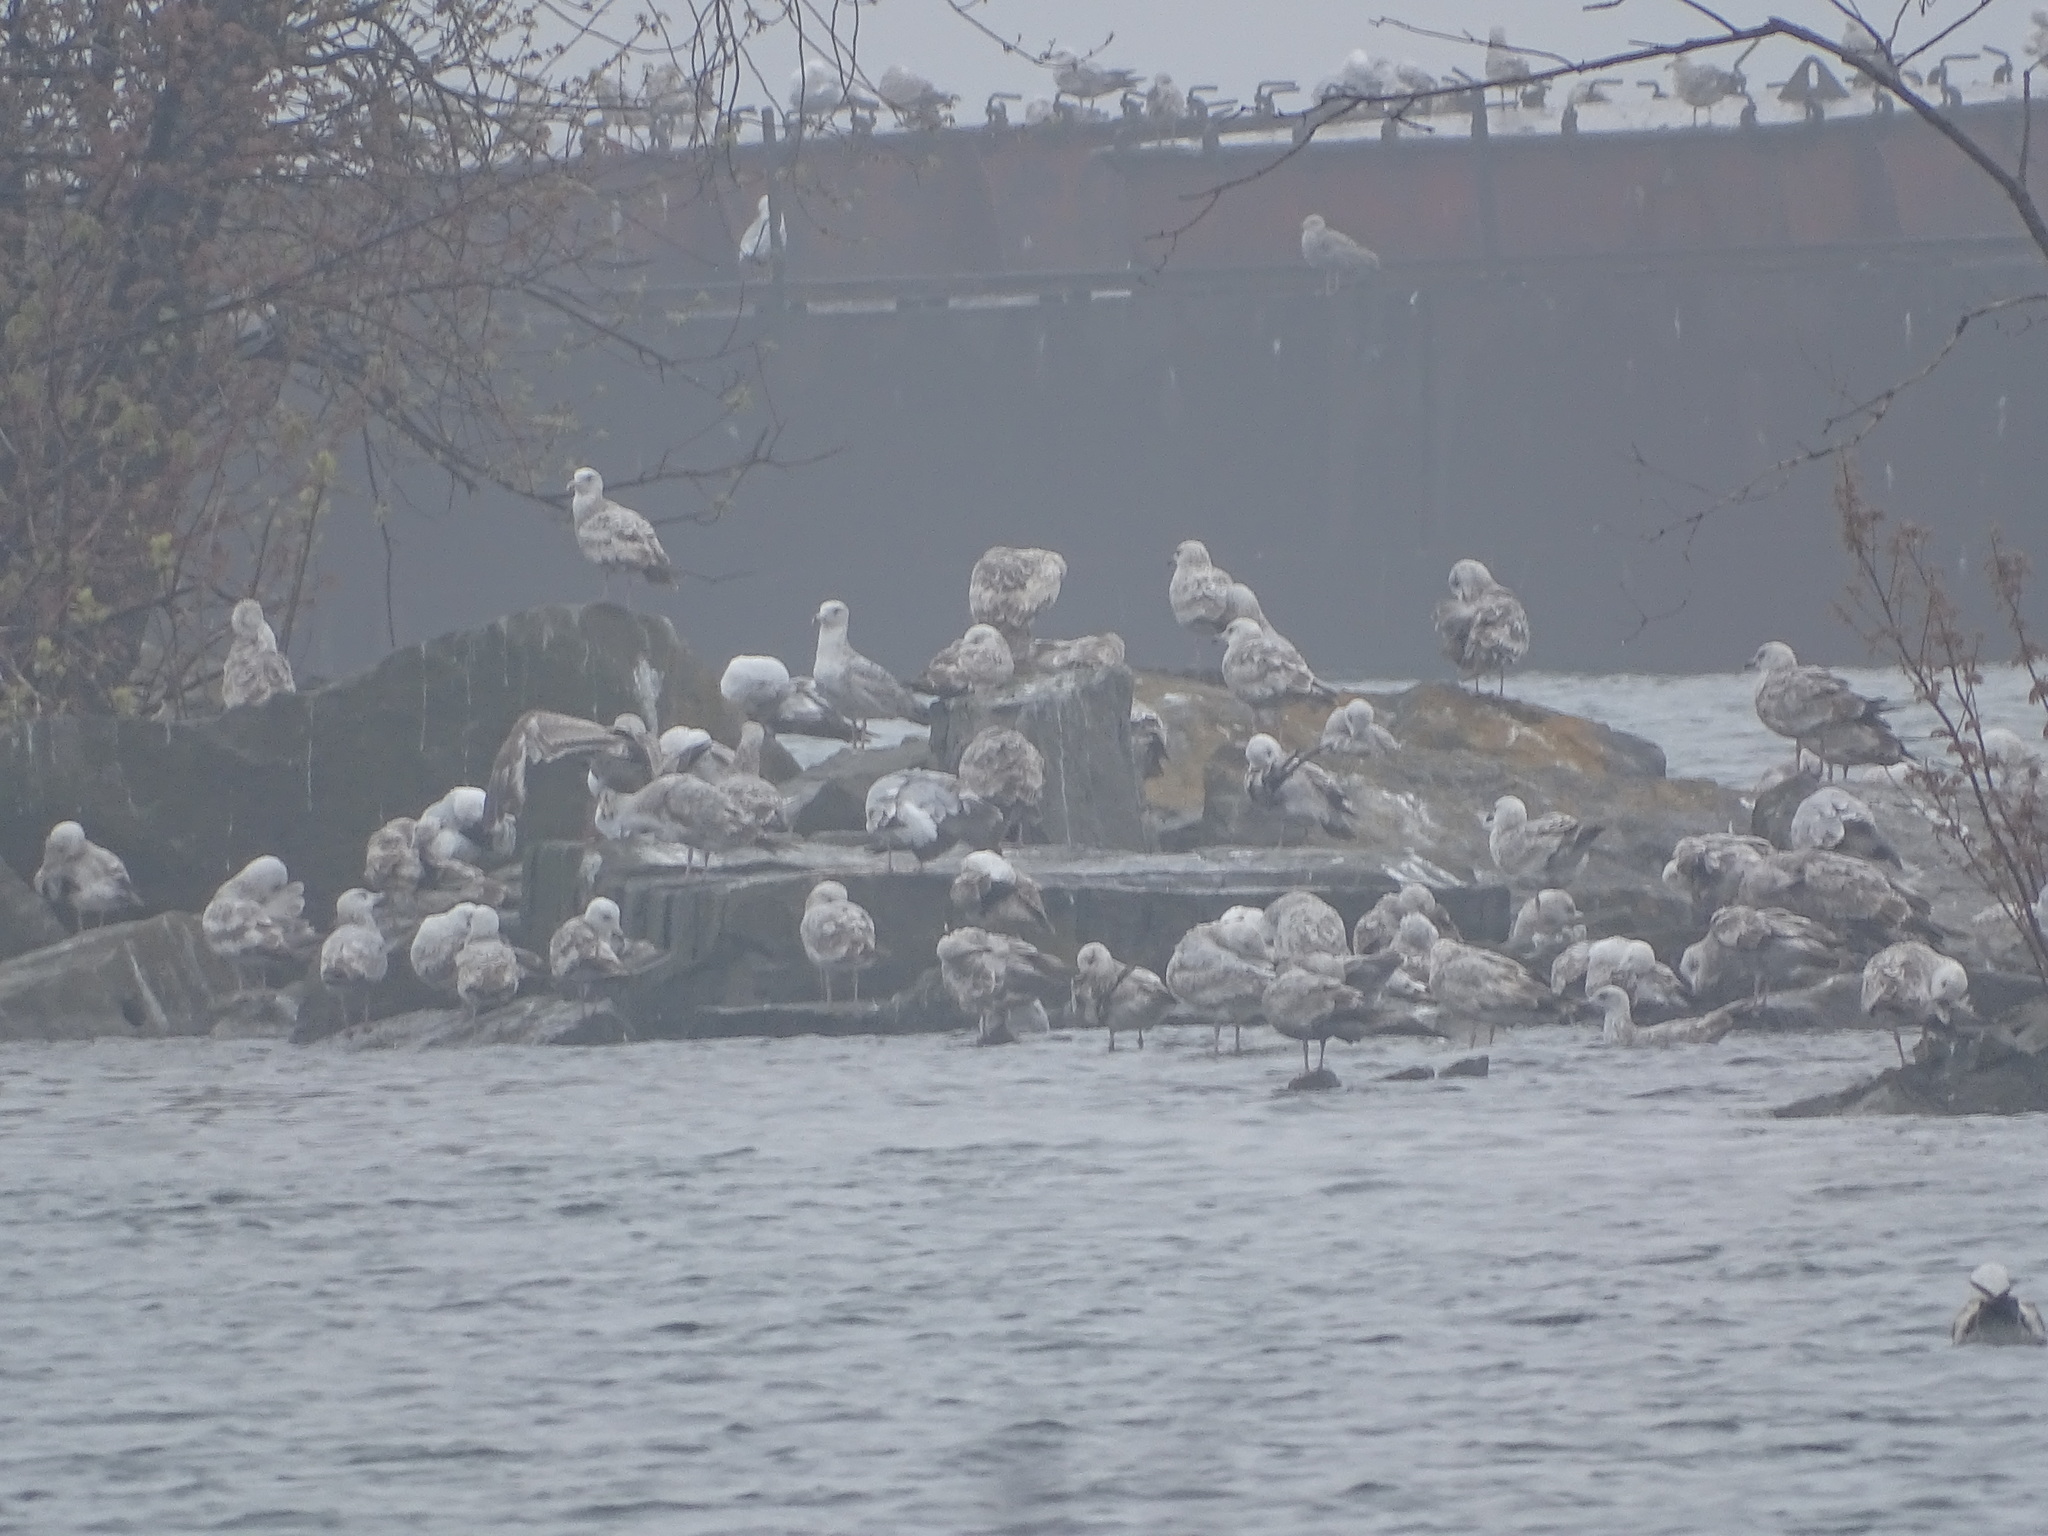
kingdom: Animalia
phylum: Chordata
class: Aves
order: Charadriiformes
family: Laridae
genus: Larus
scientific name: Larus argentatus
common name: Herring gull
